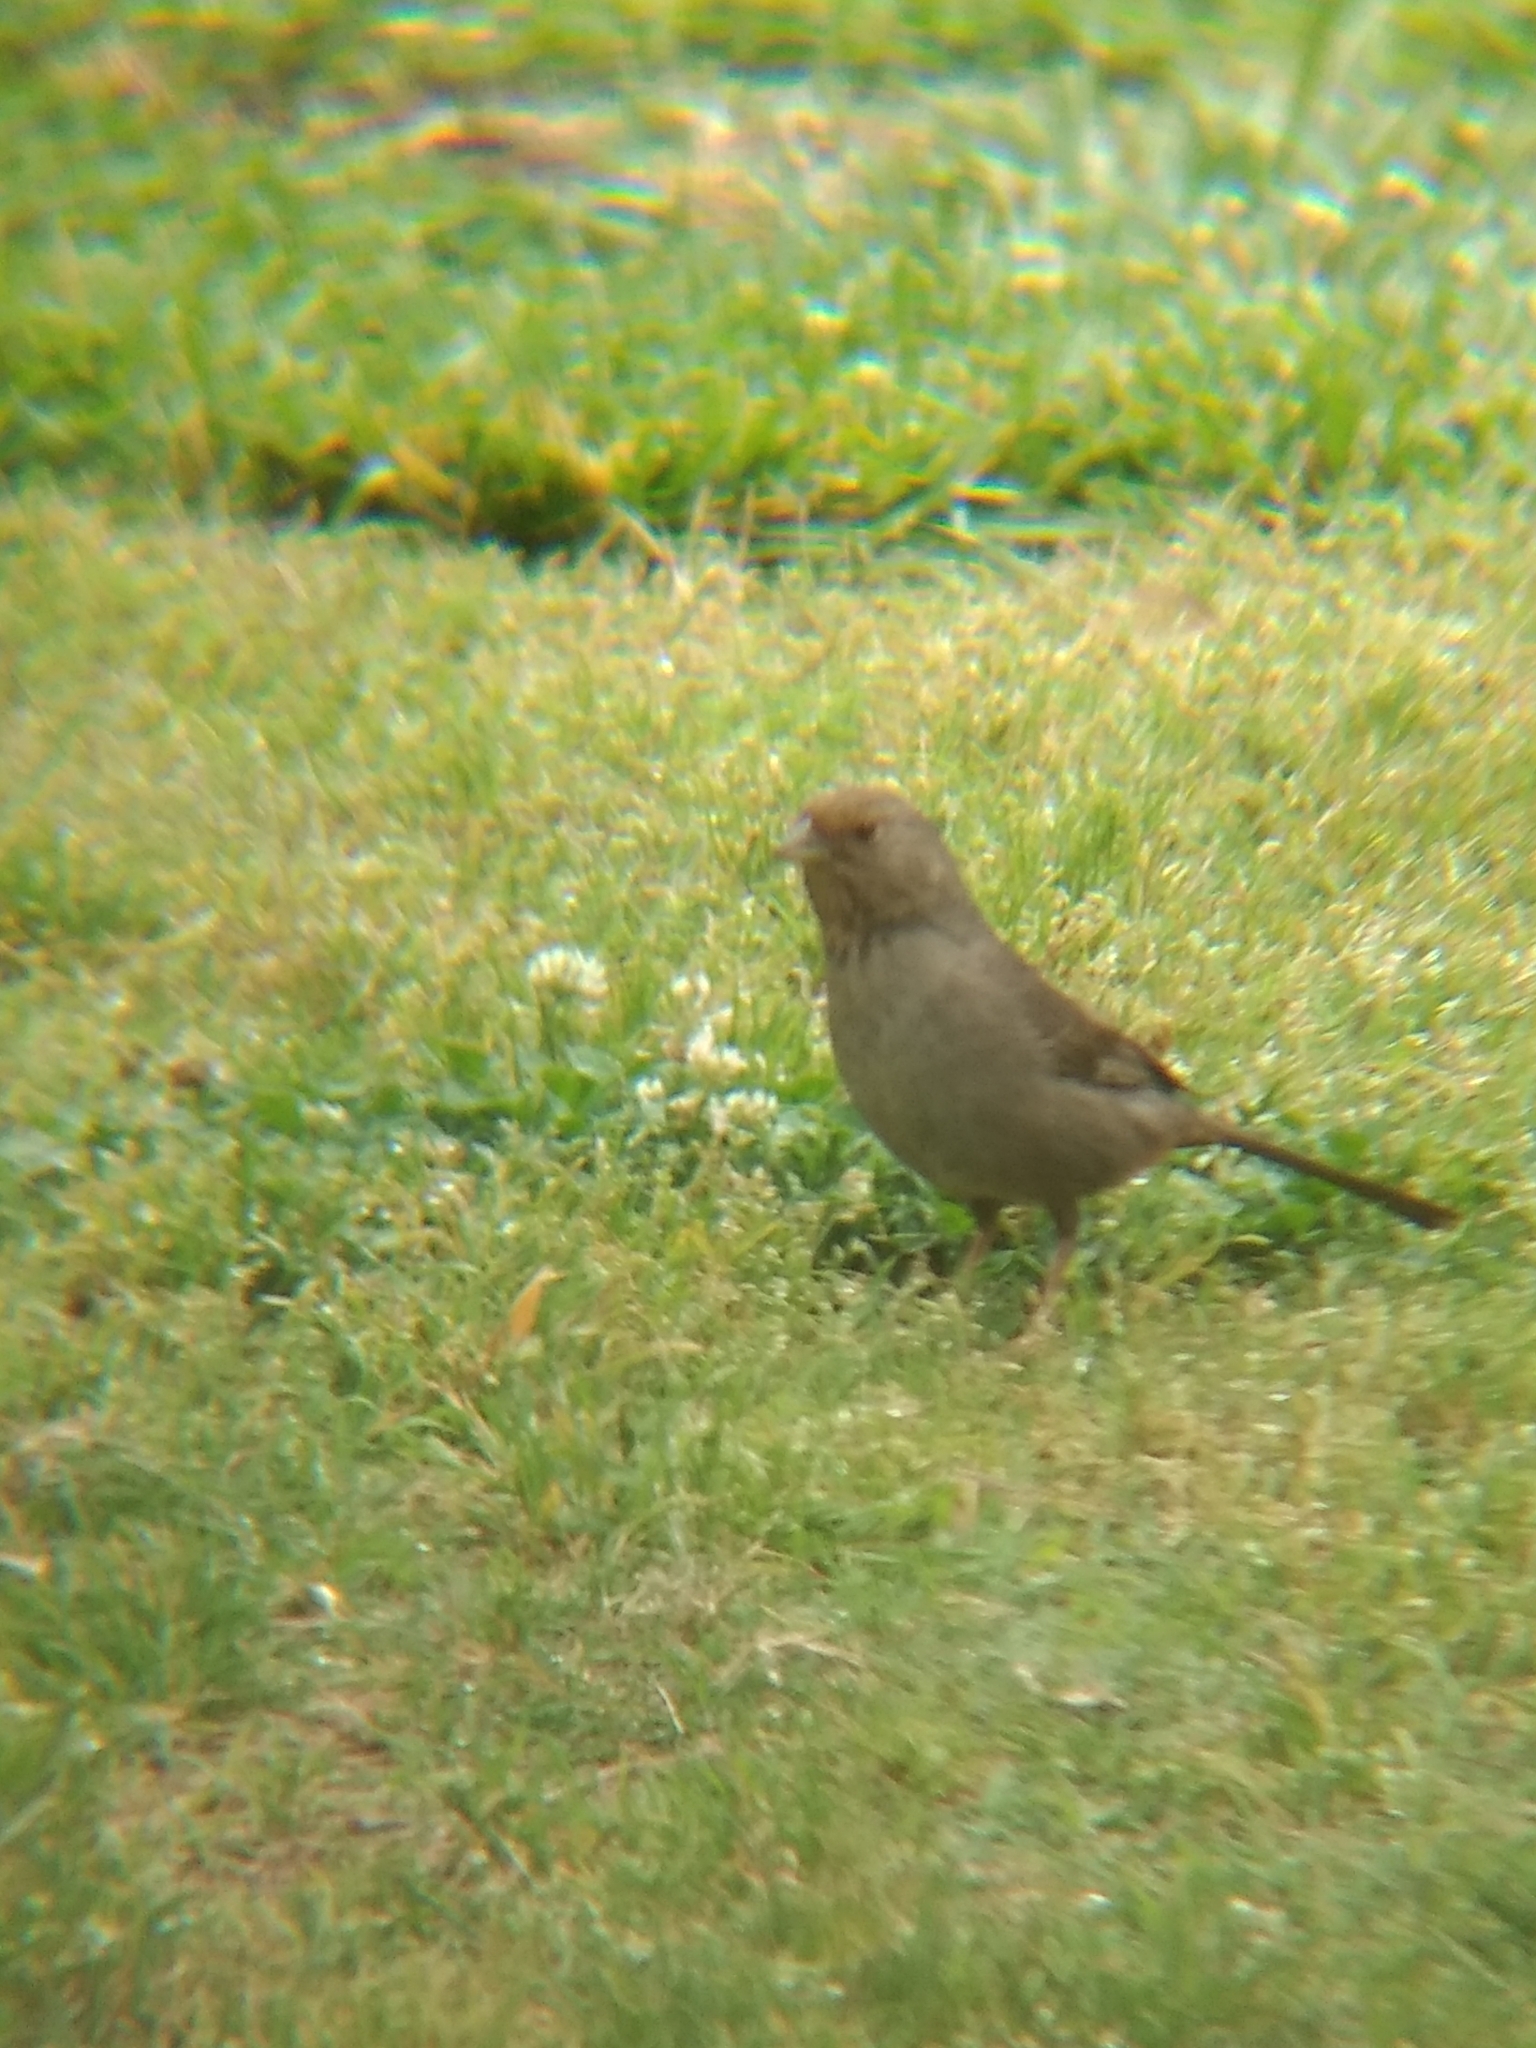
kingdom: Animalia
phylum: Chordata
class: Aves
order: Passeriformes
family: Passerellidae
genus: Melozone
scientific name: Melozone crissalis
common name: California towhee
